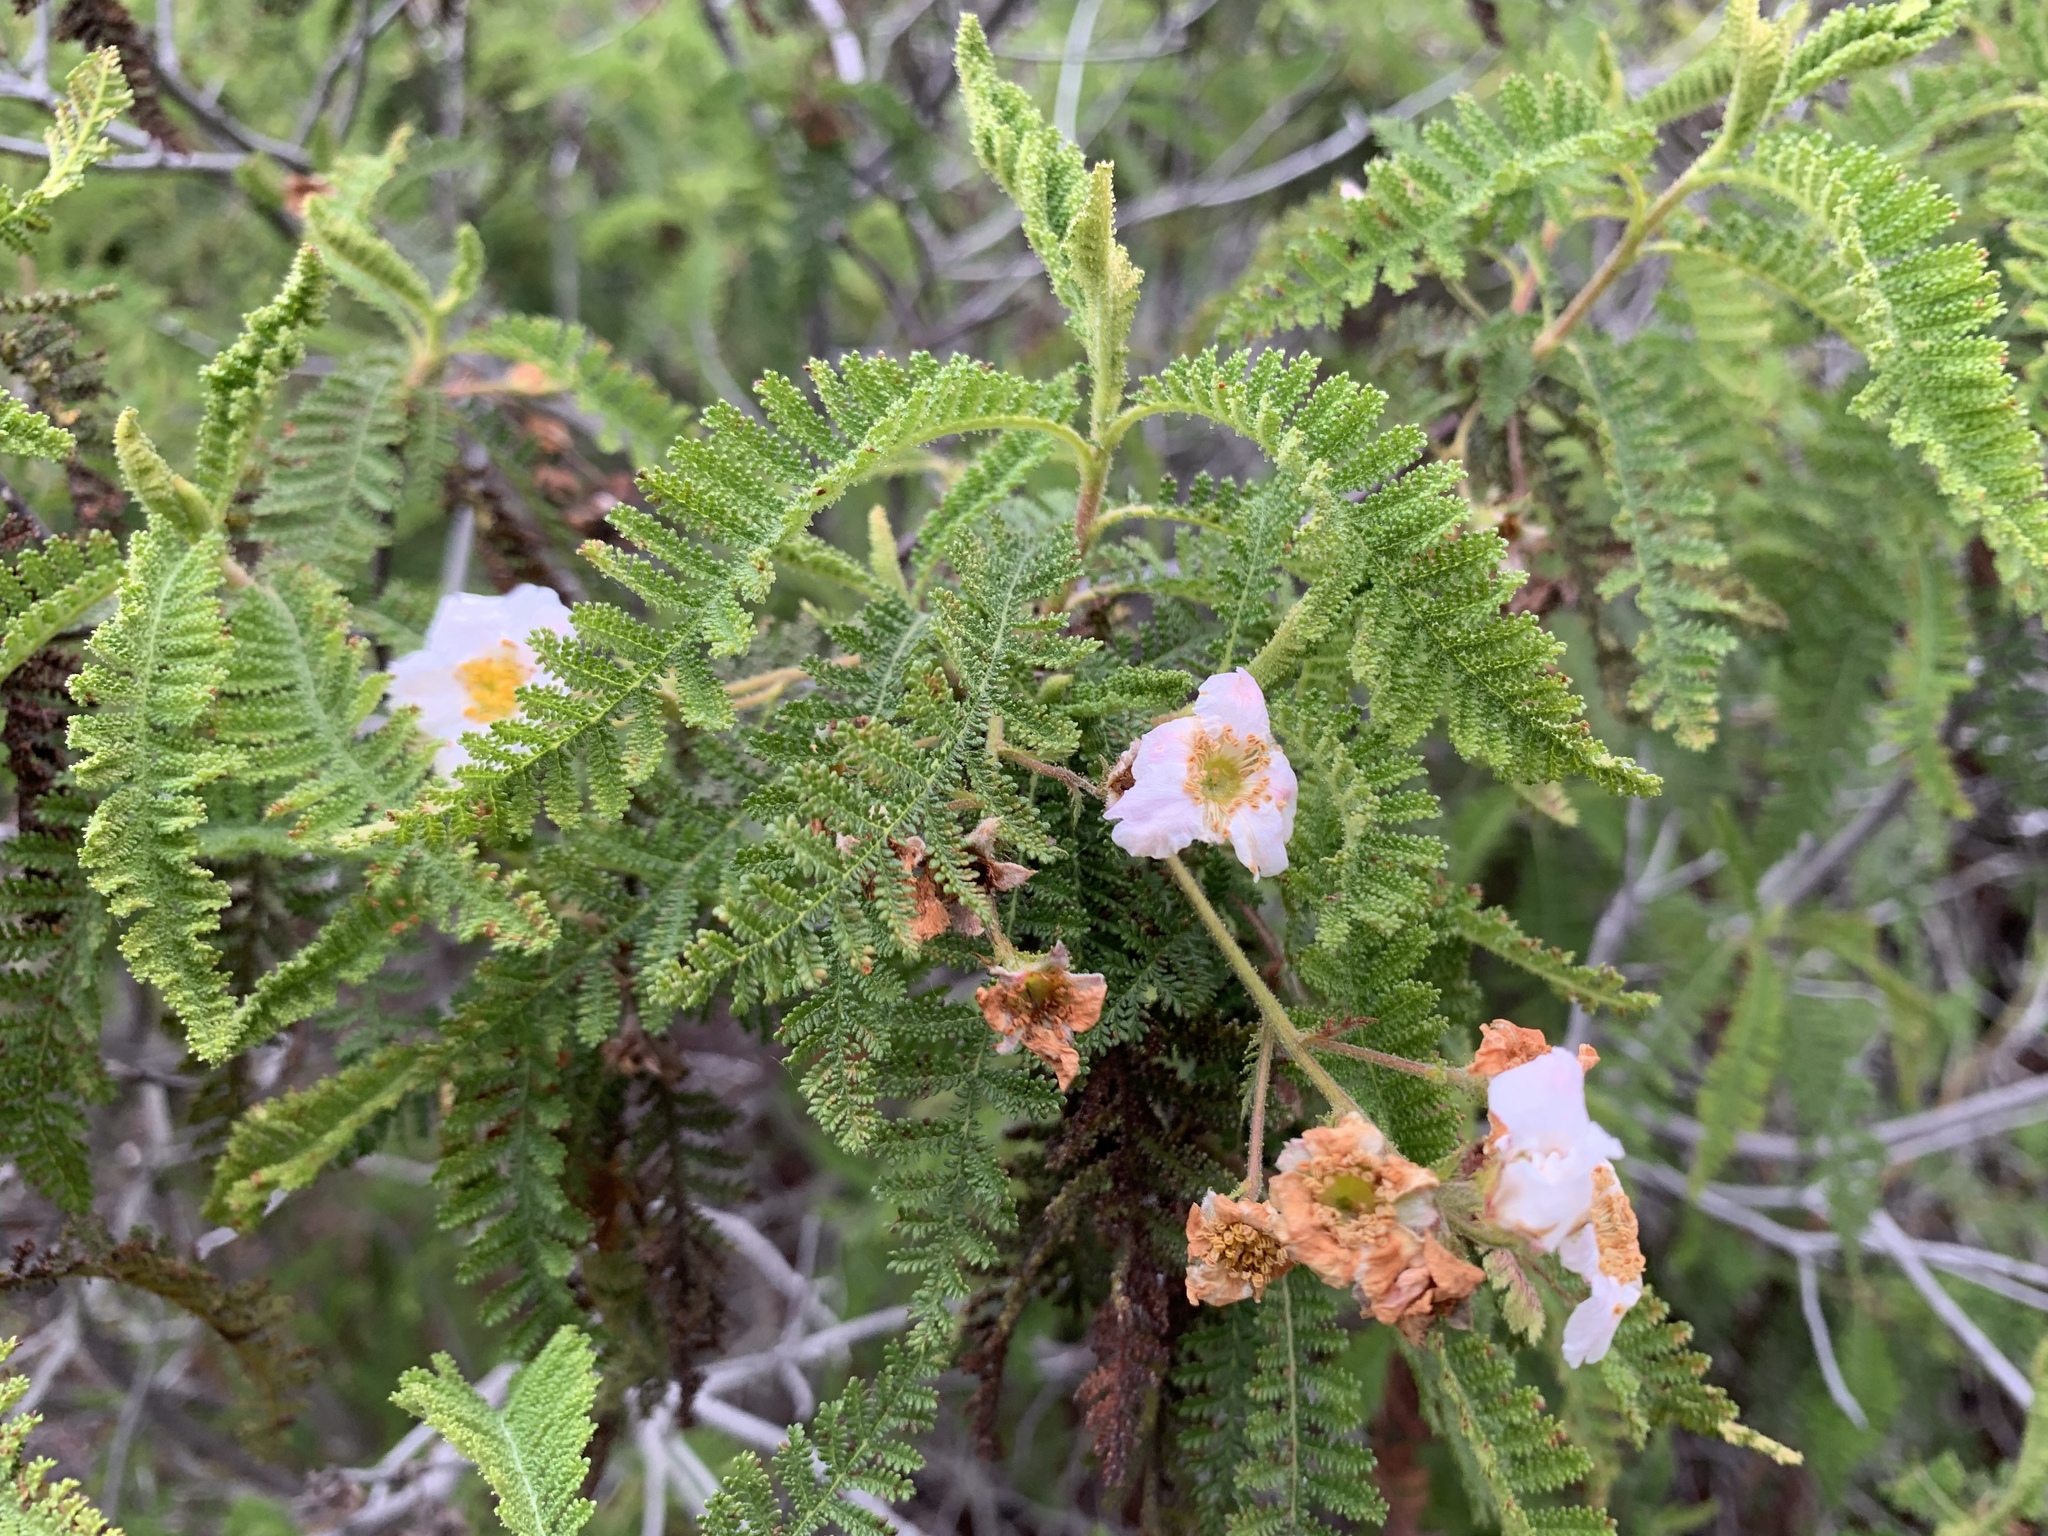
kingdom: Plantae
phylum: Tracheophyta
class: Magnoliopsida
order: Rosales
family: Rosaceae
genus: Chamaebatia
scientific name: Chamaebatia australis
